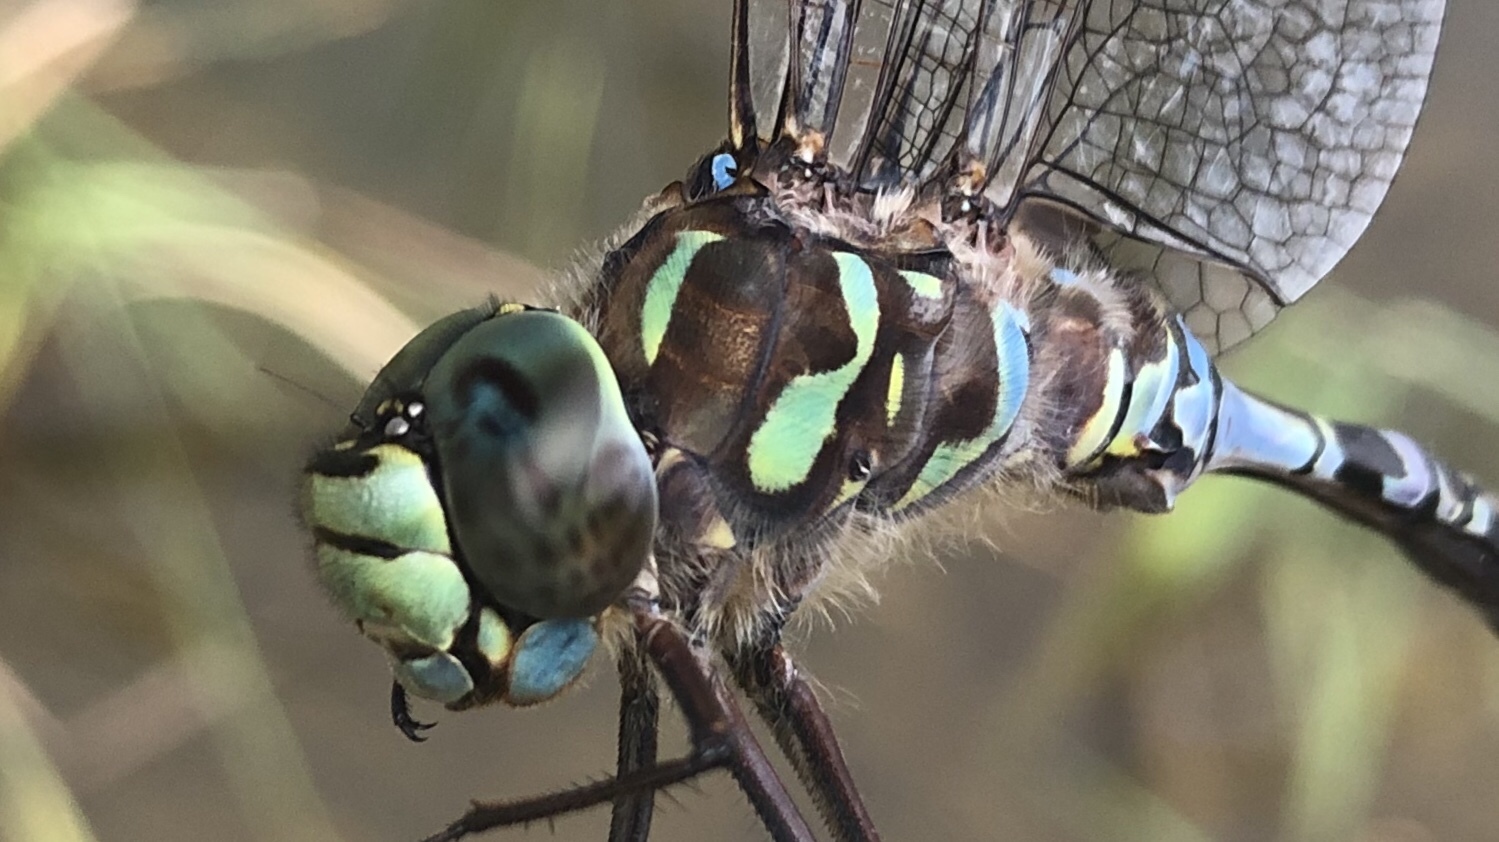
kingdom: Animalia
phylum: Arthropoda
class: Insecta
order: Odonata
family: Aeshnidae
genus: Aeshna
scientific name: Aeshna eremita
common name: Lake darner
